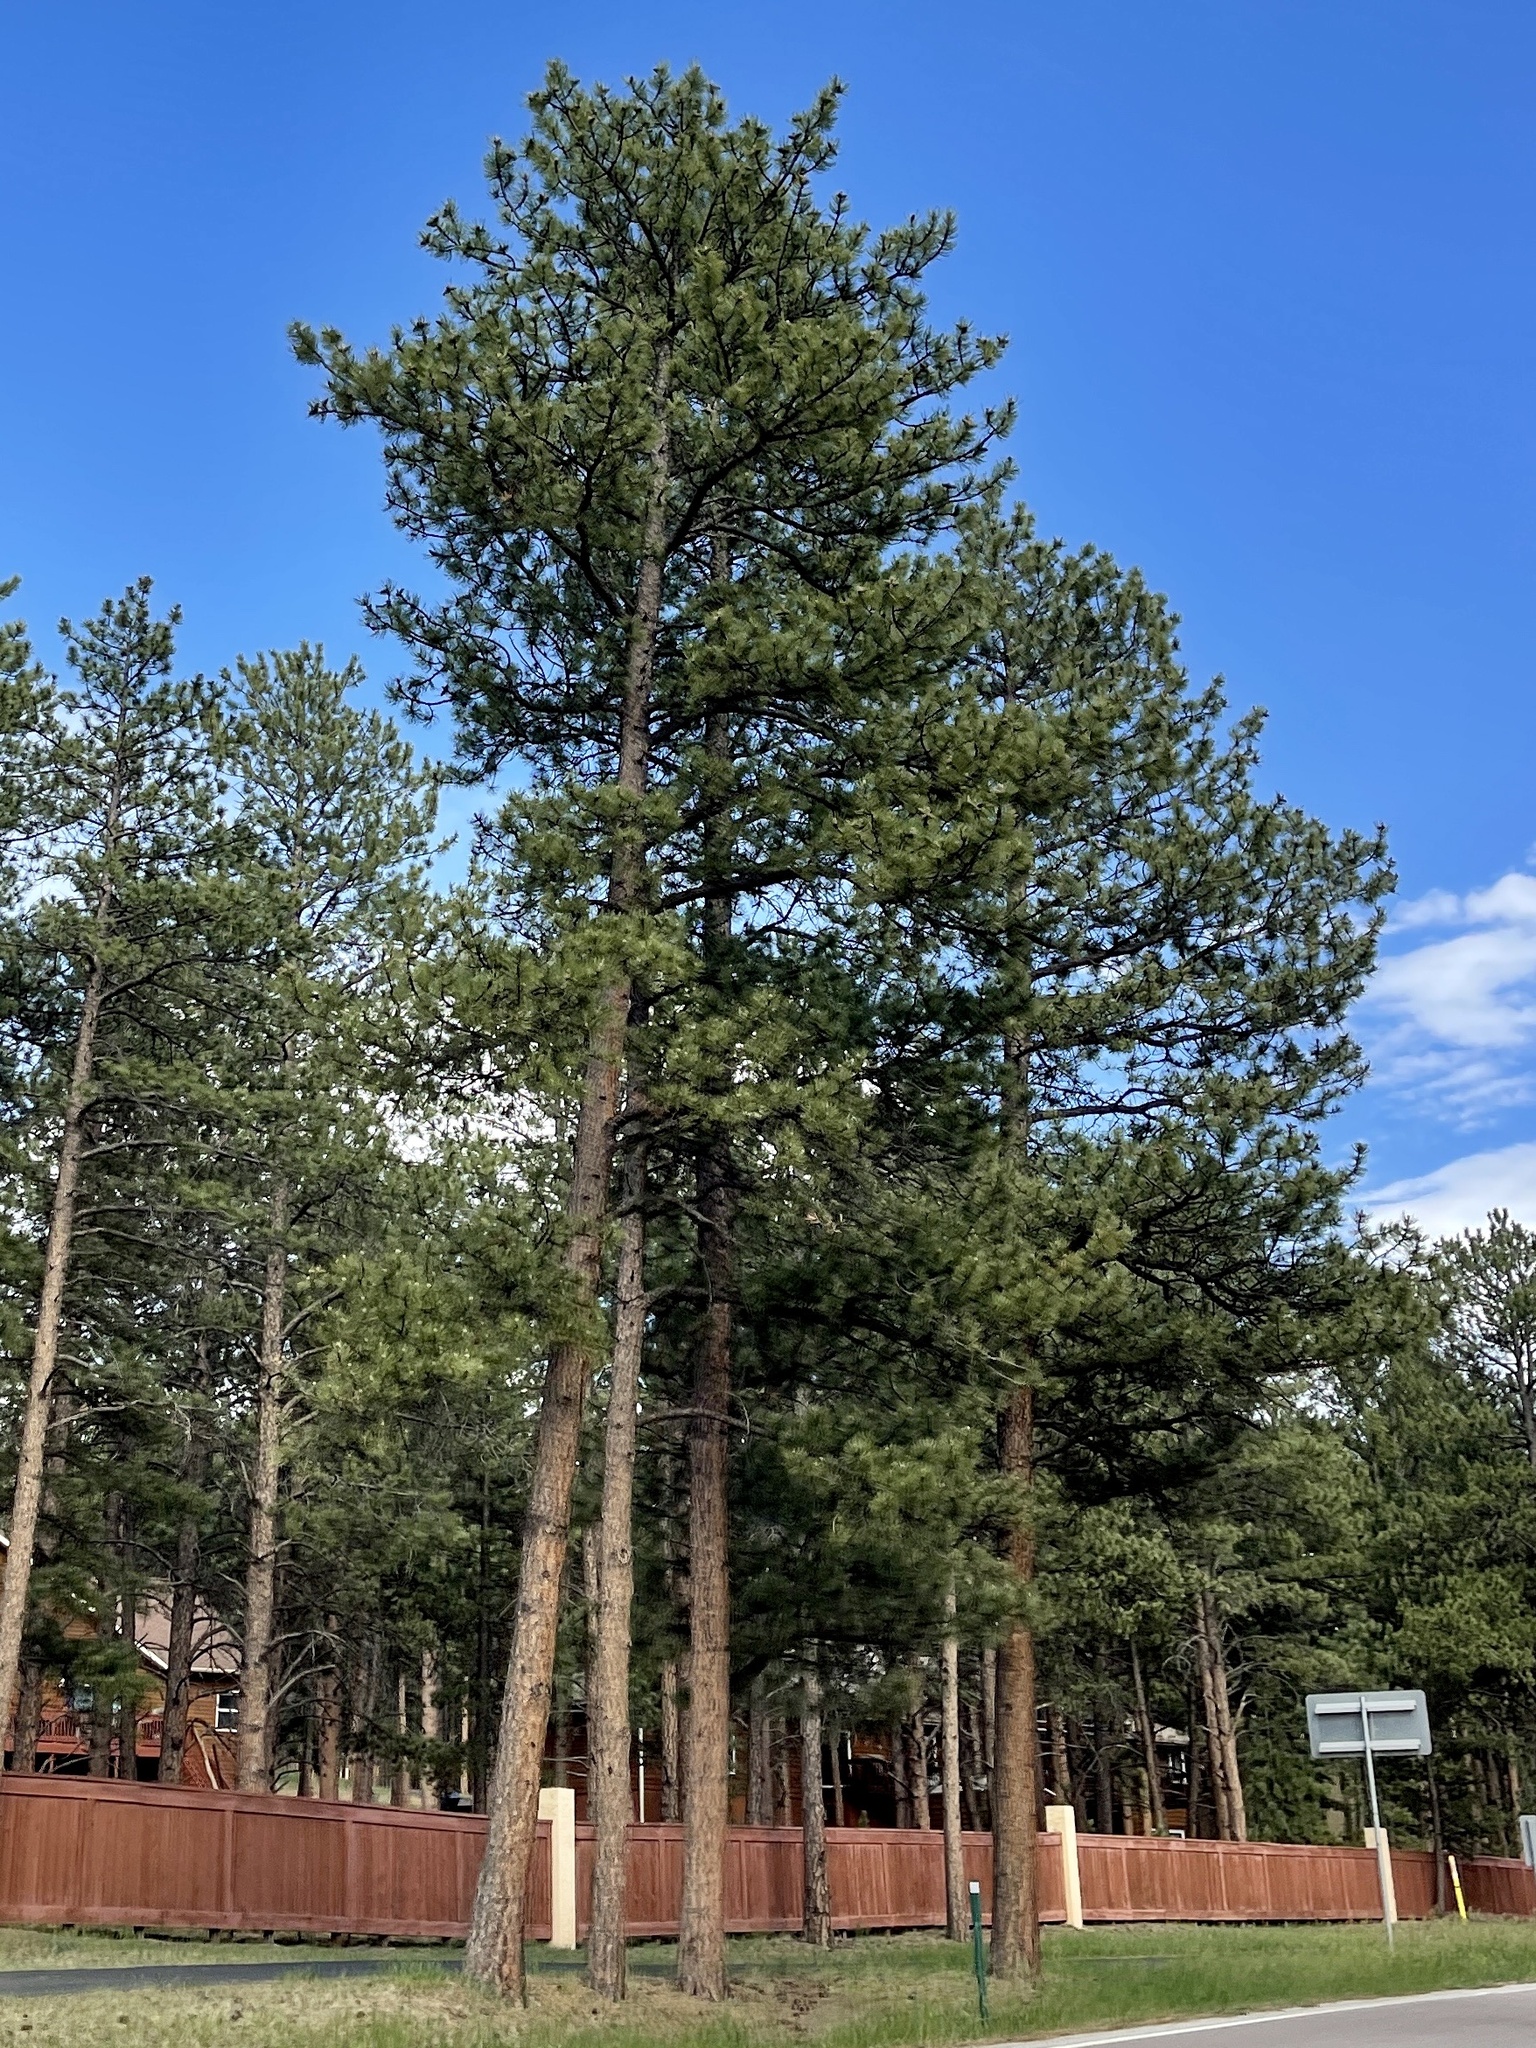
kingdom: Plantae
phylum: Tracheophyta
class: Pinopsida
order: Pinales
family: Pinaceae
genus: Pinus
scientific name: Pinus ponderosa
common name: Western yellow-pine
